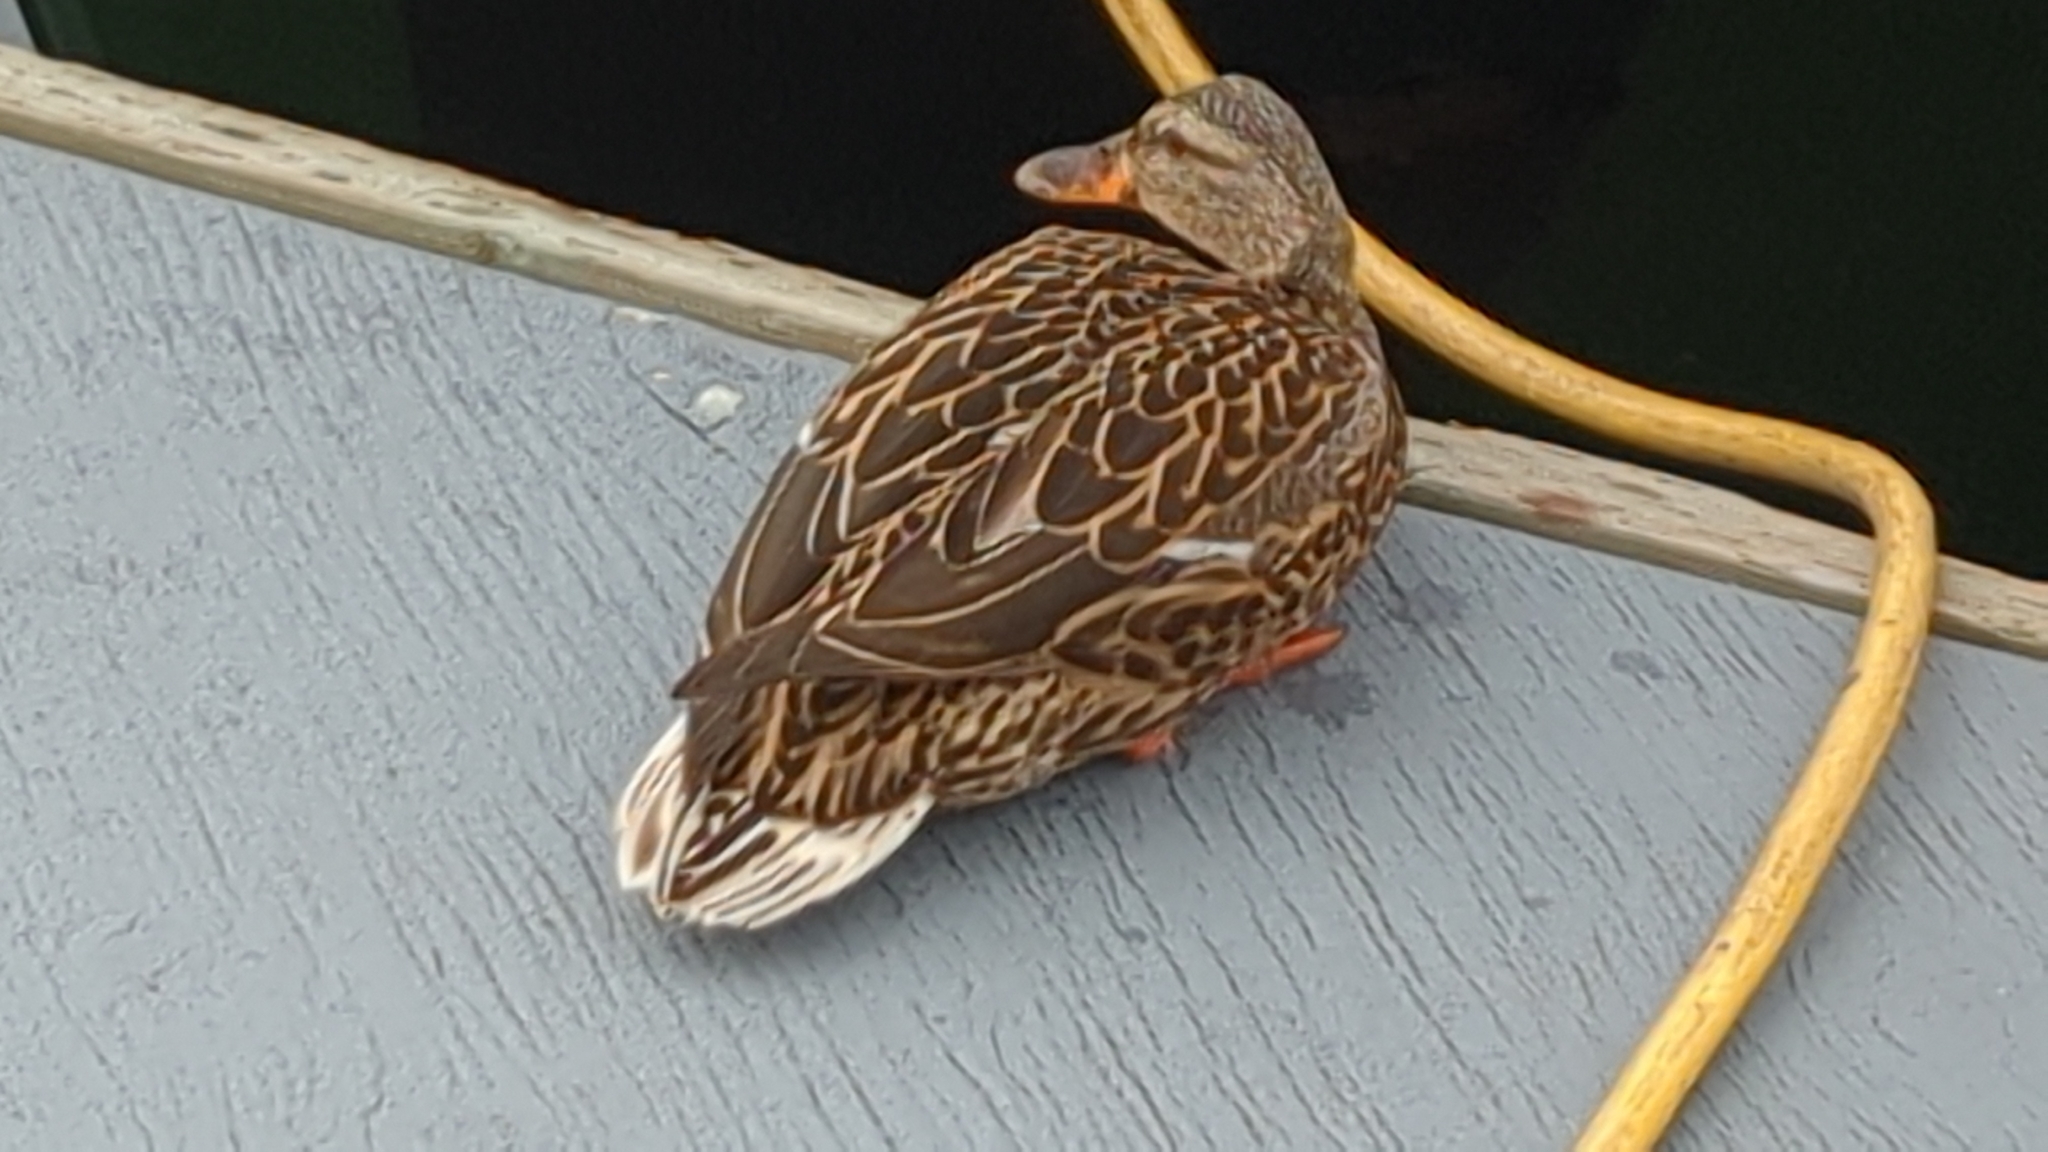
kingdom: Animalia
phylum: Chordata
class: Aves
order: Anseriformes
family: Anatidae
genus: Anas
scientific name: Anas platyrhynchos
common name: Mallard
